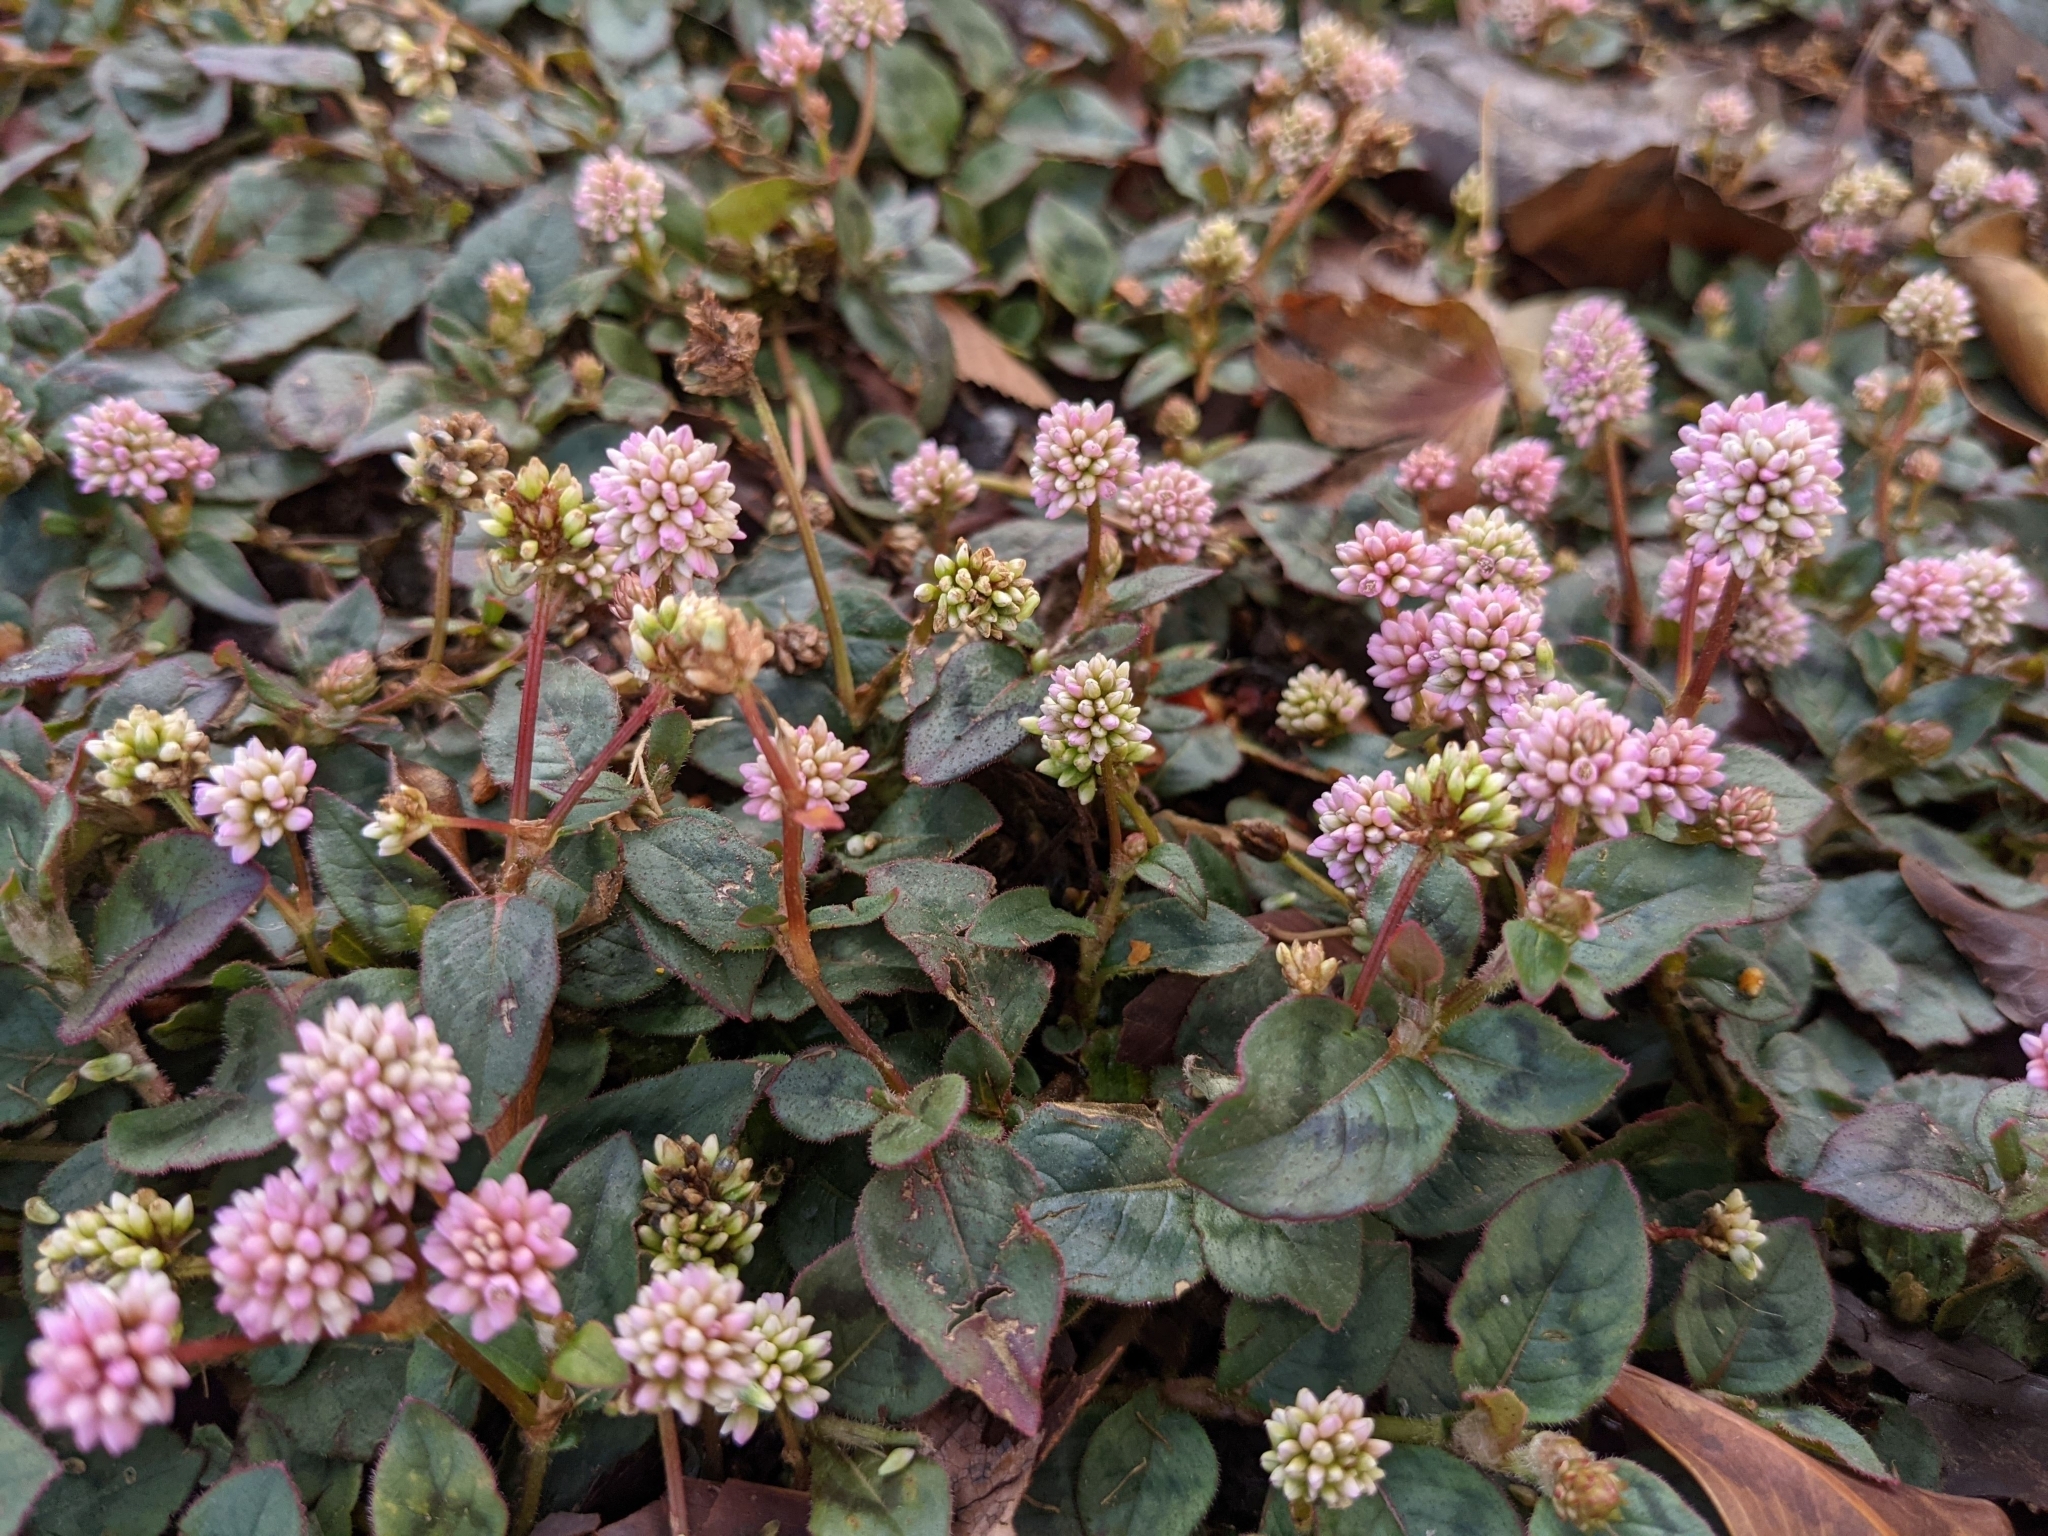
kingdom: Plantae
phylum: Tracheophyta
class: Magnoliopsida
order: Caryophyllales
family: Polygonaceae
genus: Persicaria
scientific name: Persicaria capitata
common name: Pinkhead smartweed
